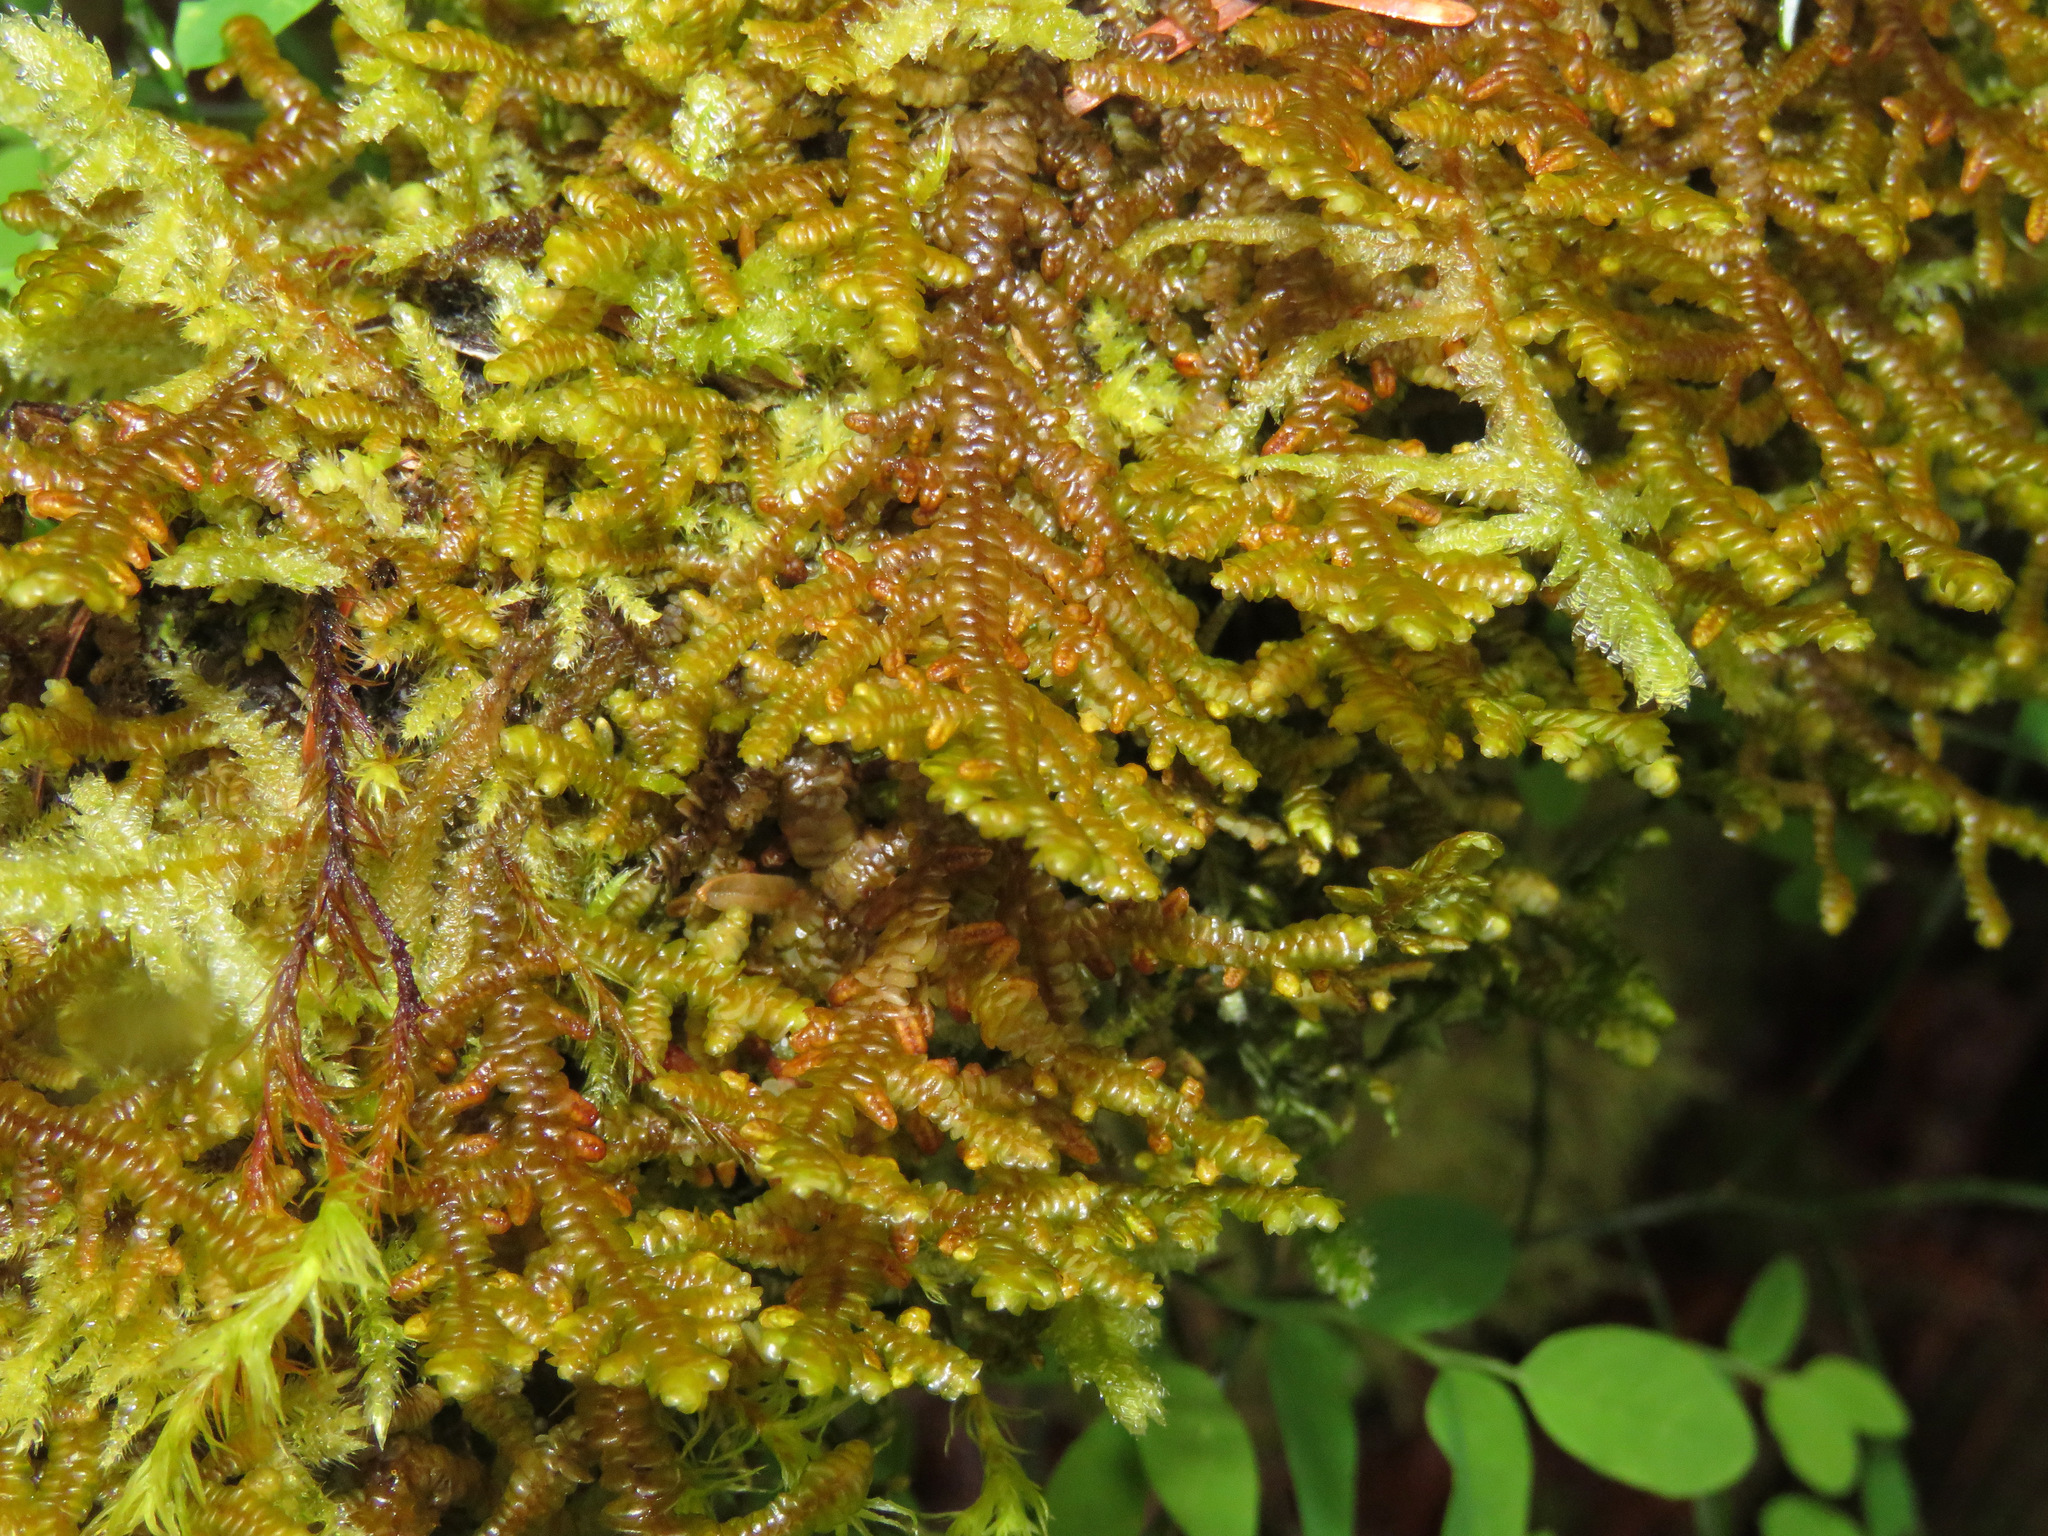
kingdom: Plantae
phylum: Marchantiophyta
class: Jungermanniopsida
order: Porellales
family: Porellaceae
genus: Porella
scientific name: Porella navicularis
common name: Tree ruffle liverwort
